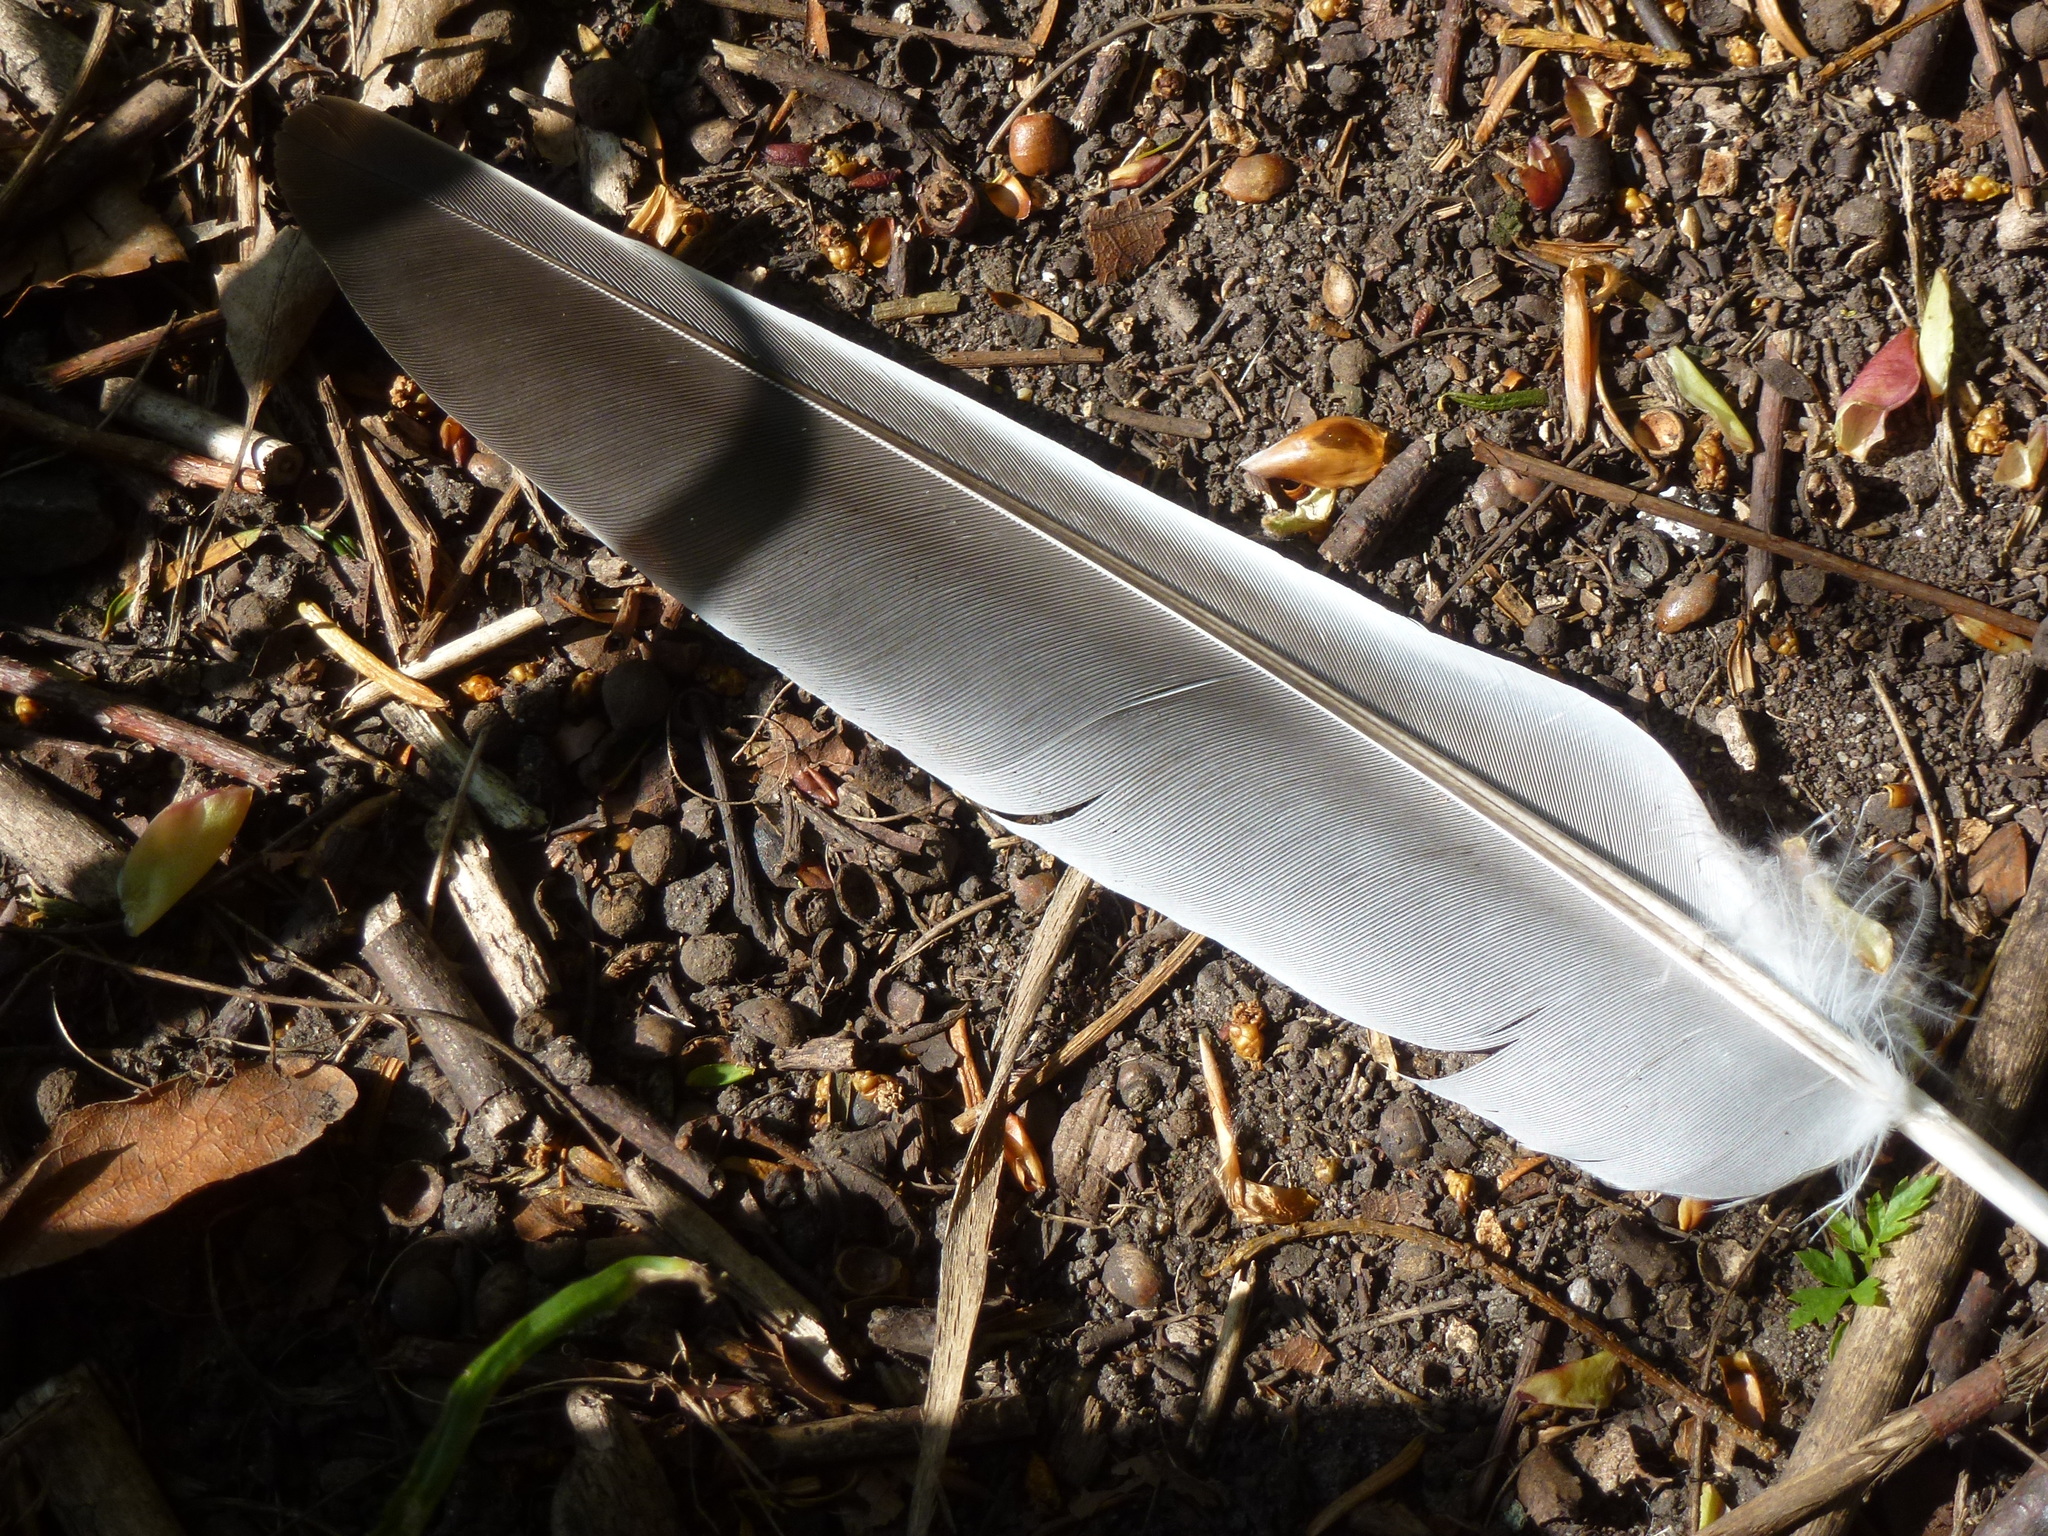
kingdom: Animalia
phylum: Chordata
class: Aves
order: Columbiformes
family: Columbidae
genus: Columba
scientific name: Columba palumbus
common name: Common wood pigeon
